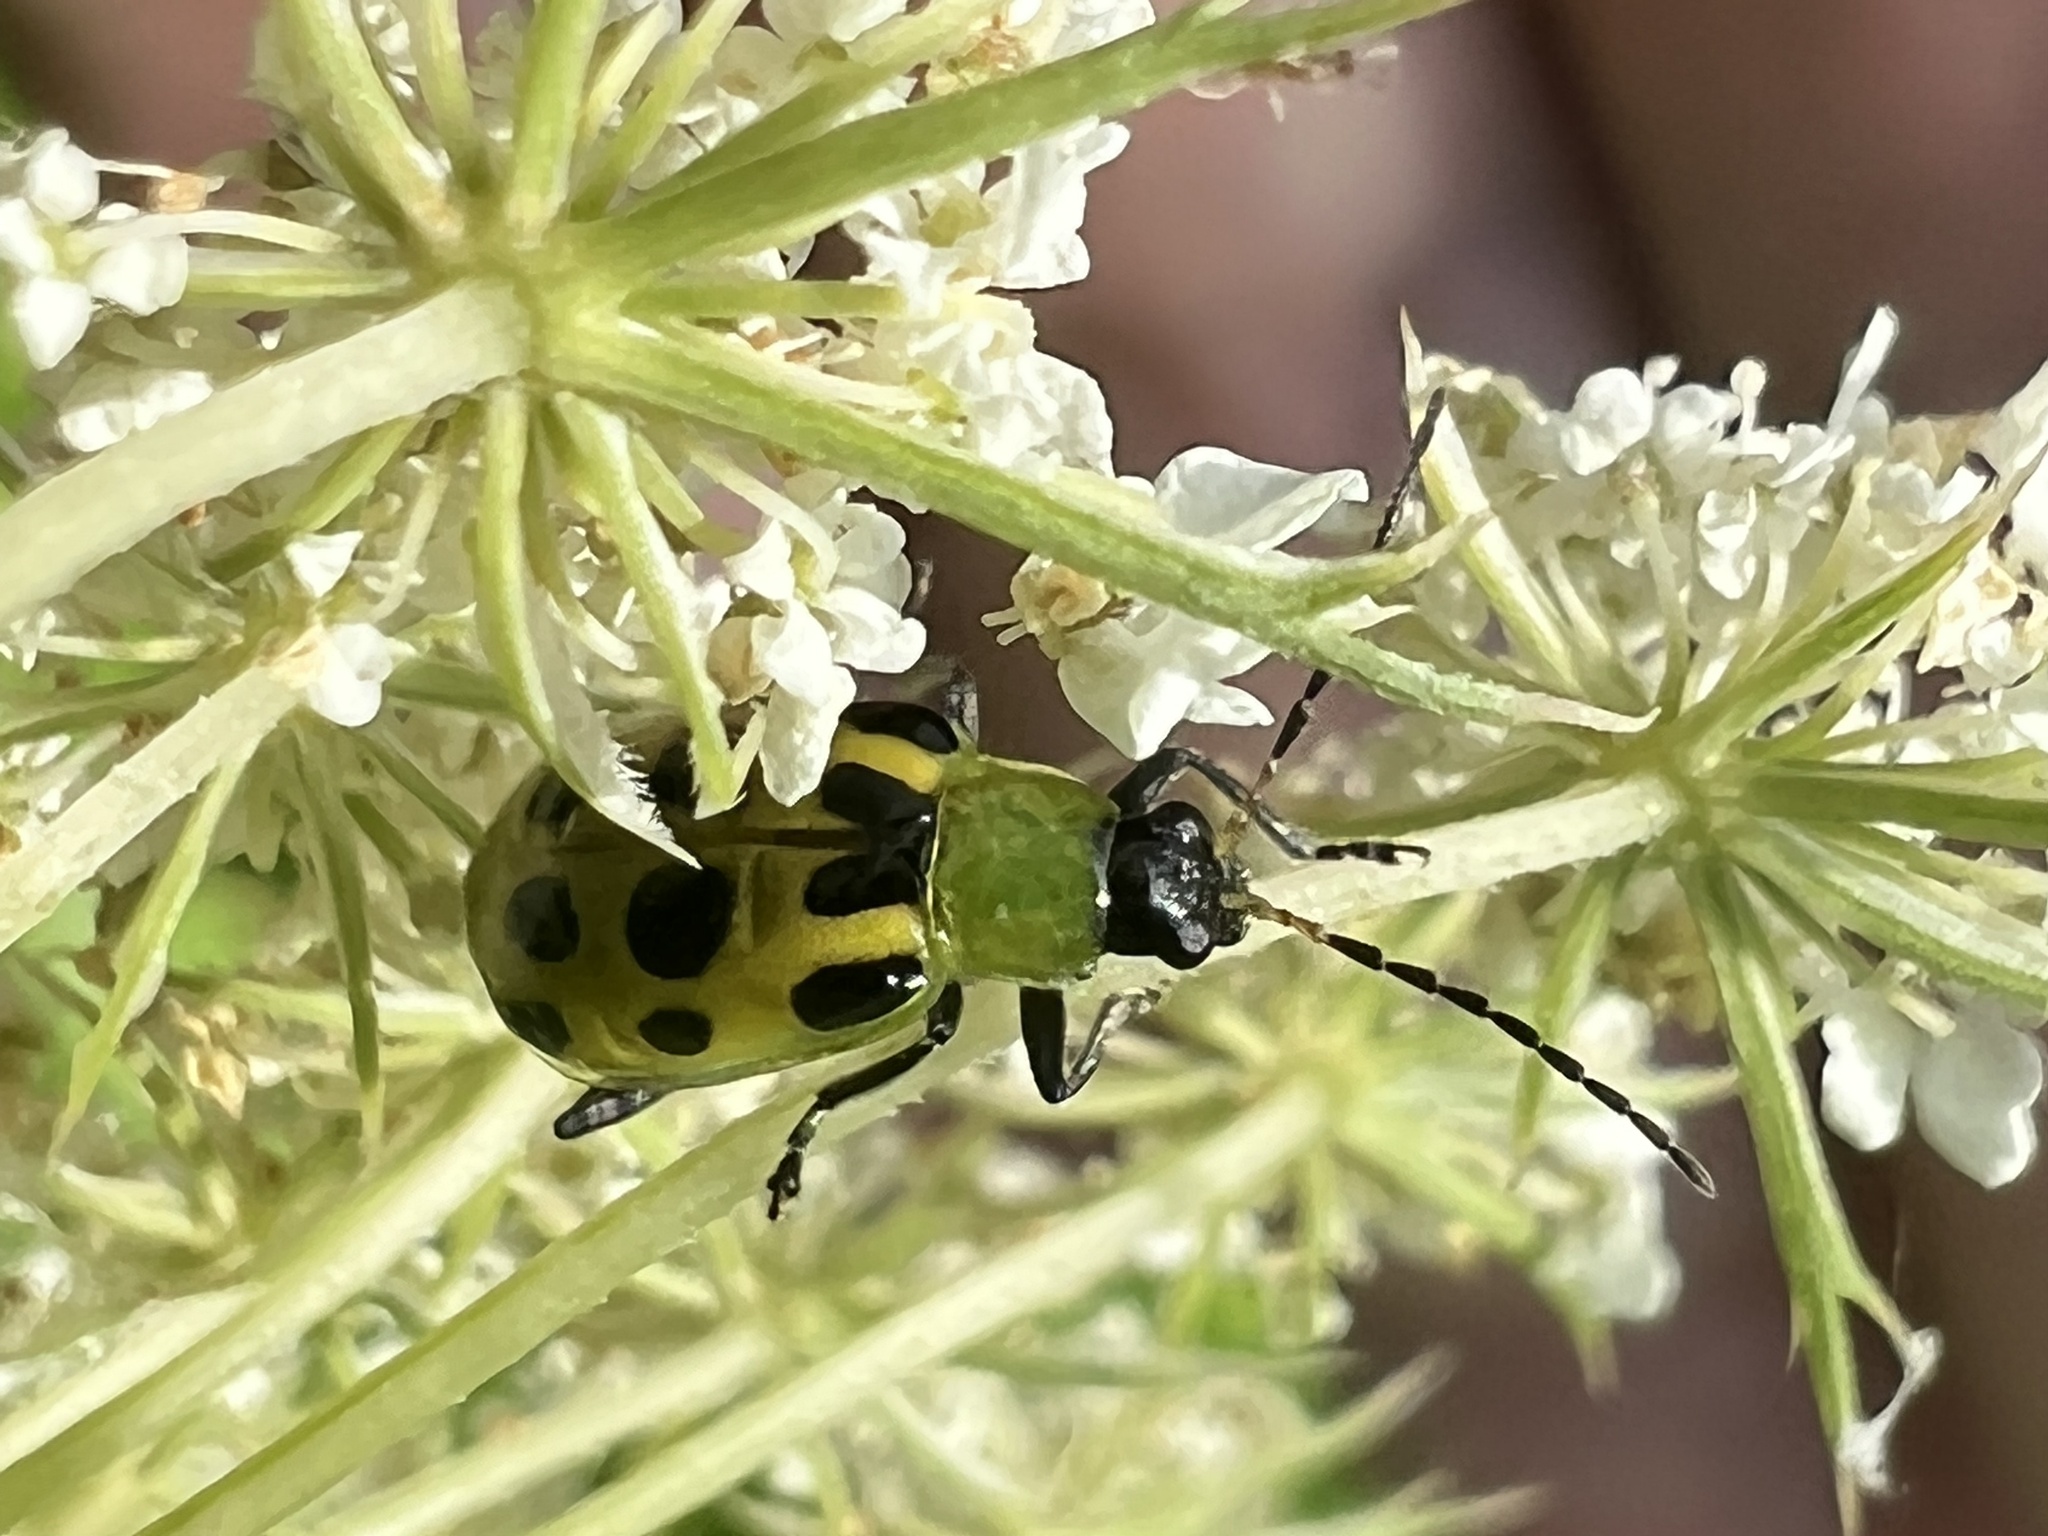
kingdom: Animalia
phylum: Arthropoda
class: Insecta
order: Coleoptera
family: Chrysomelidae
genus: Diabrotica
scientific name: Diabrotica undecimpunctata
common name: Spotted cucumber beetle
